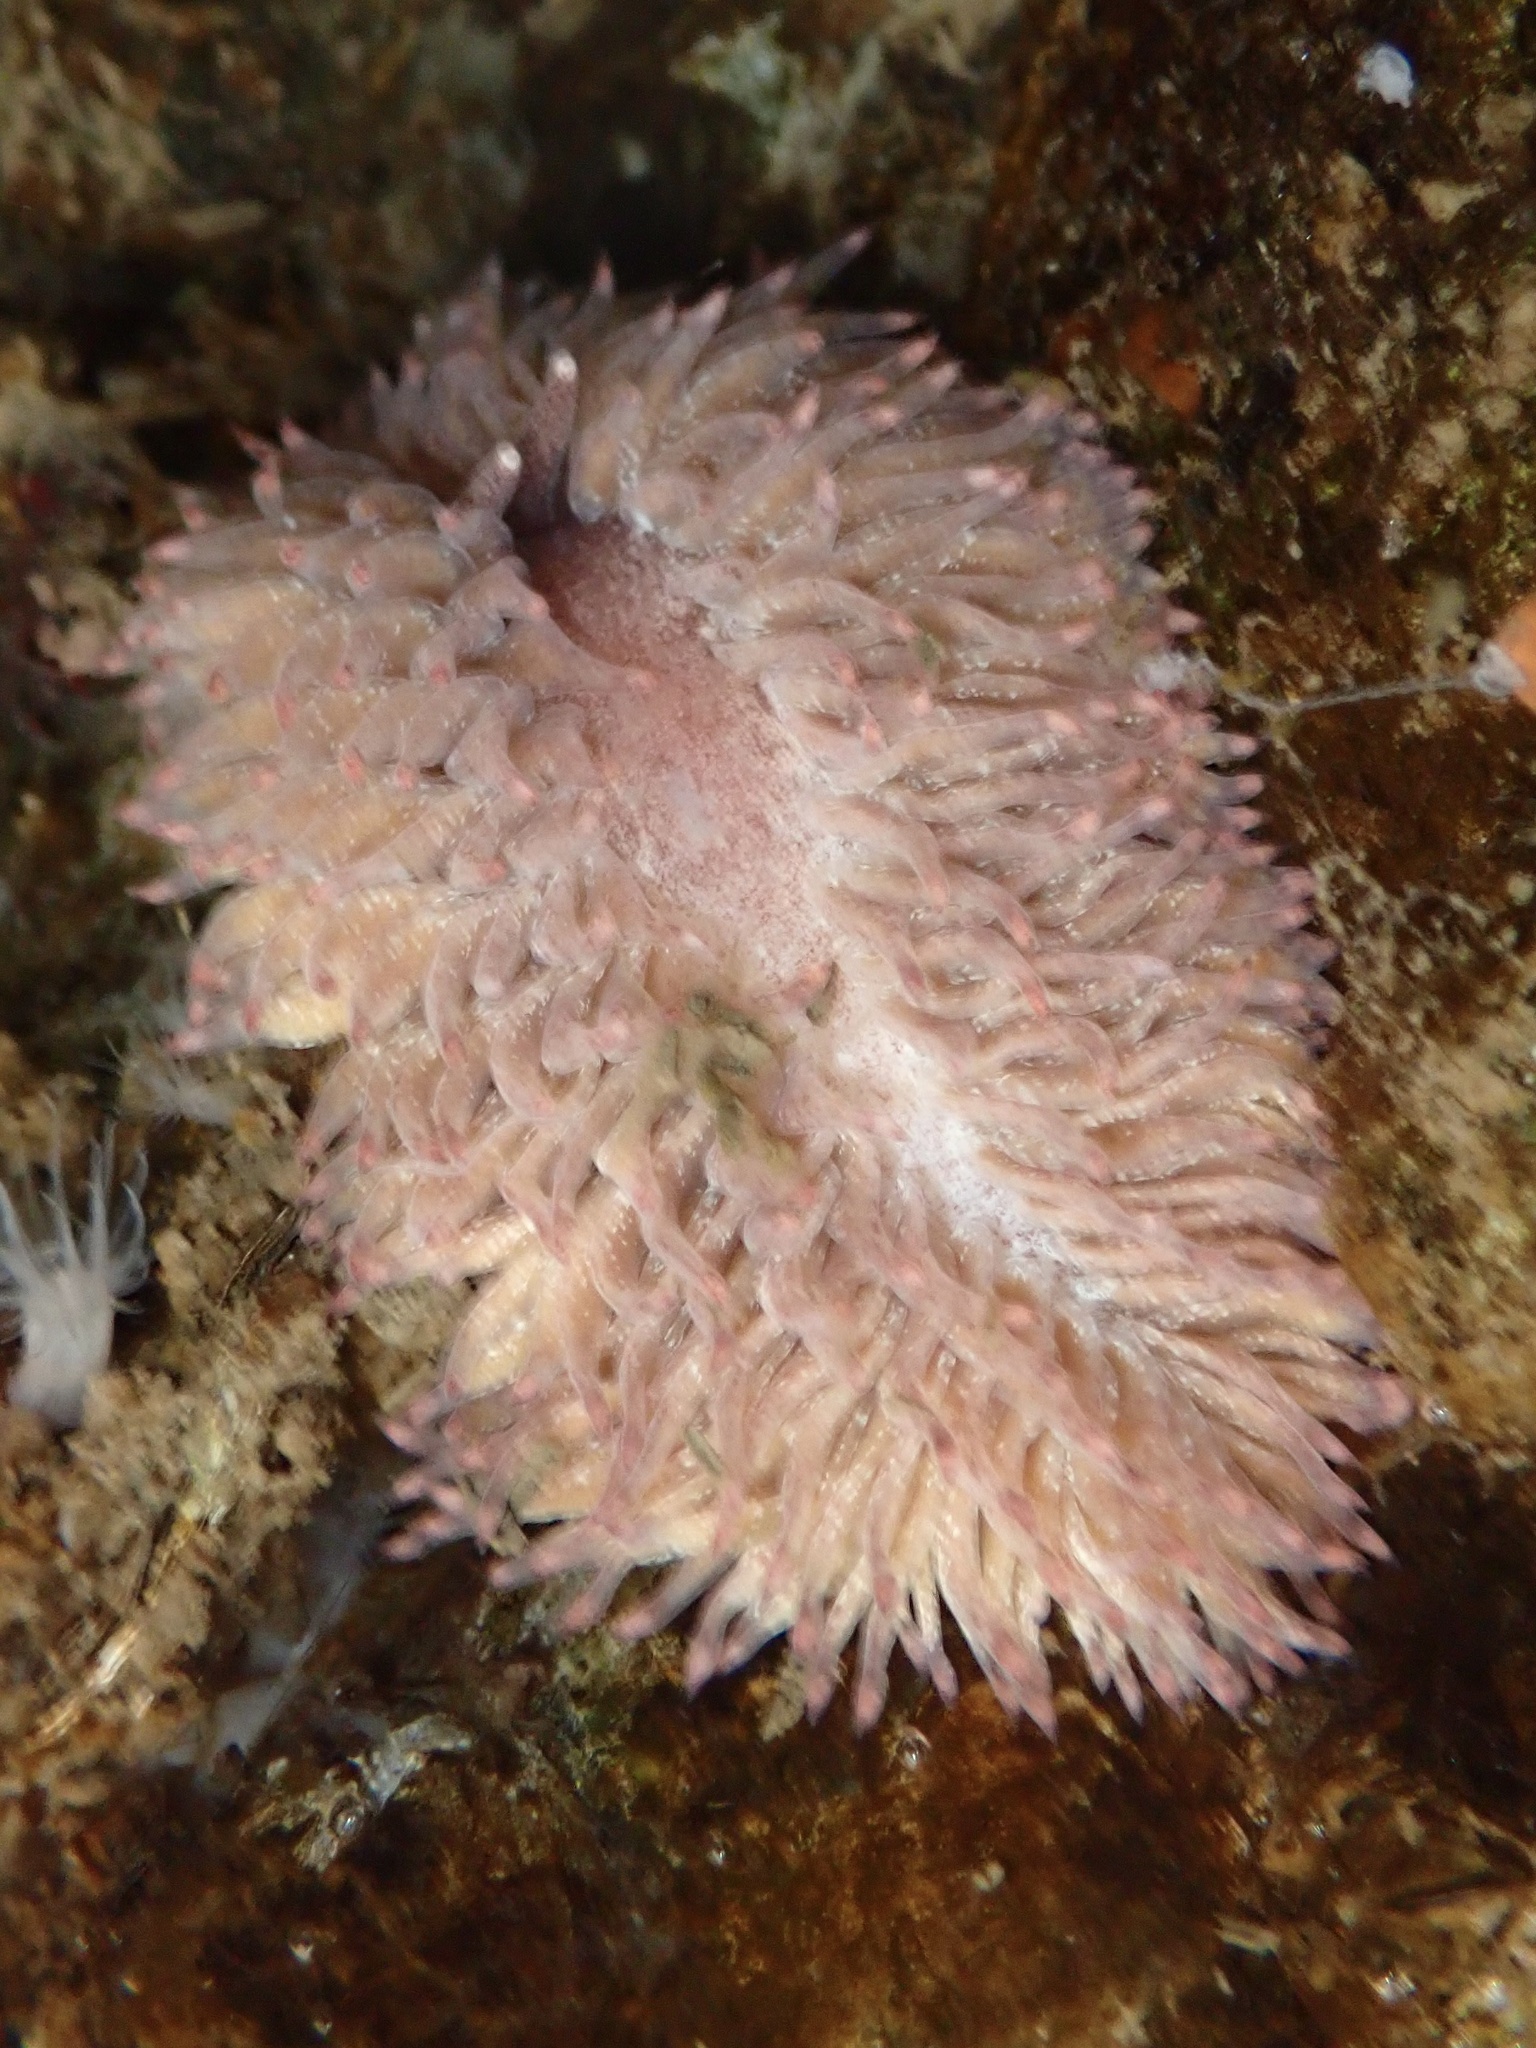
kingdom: Animalia
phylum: Mollusca
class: Gastropoda
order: Nudibranchia
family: Aeolidiidae
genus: Aeolidia
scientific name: Aeolidia papillosa
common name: Common grey sea slug
